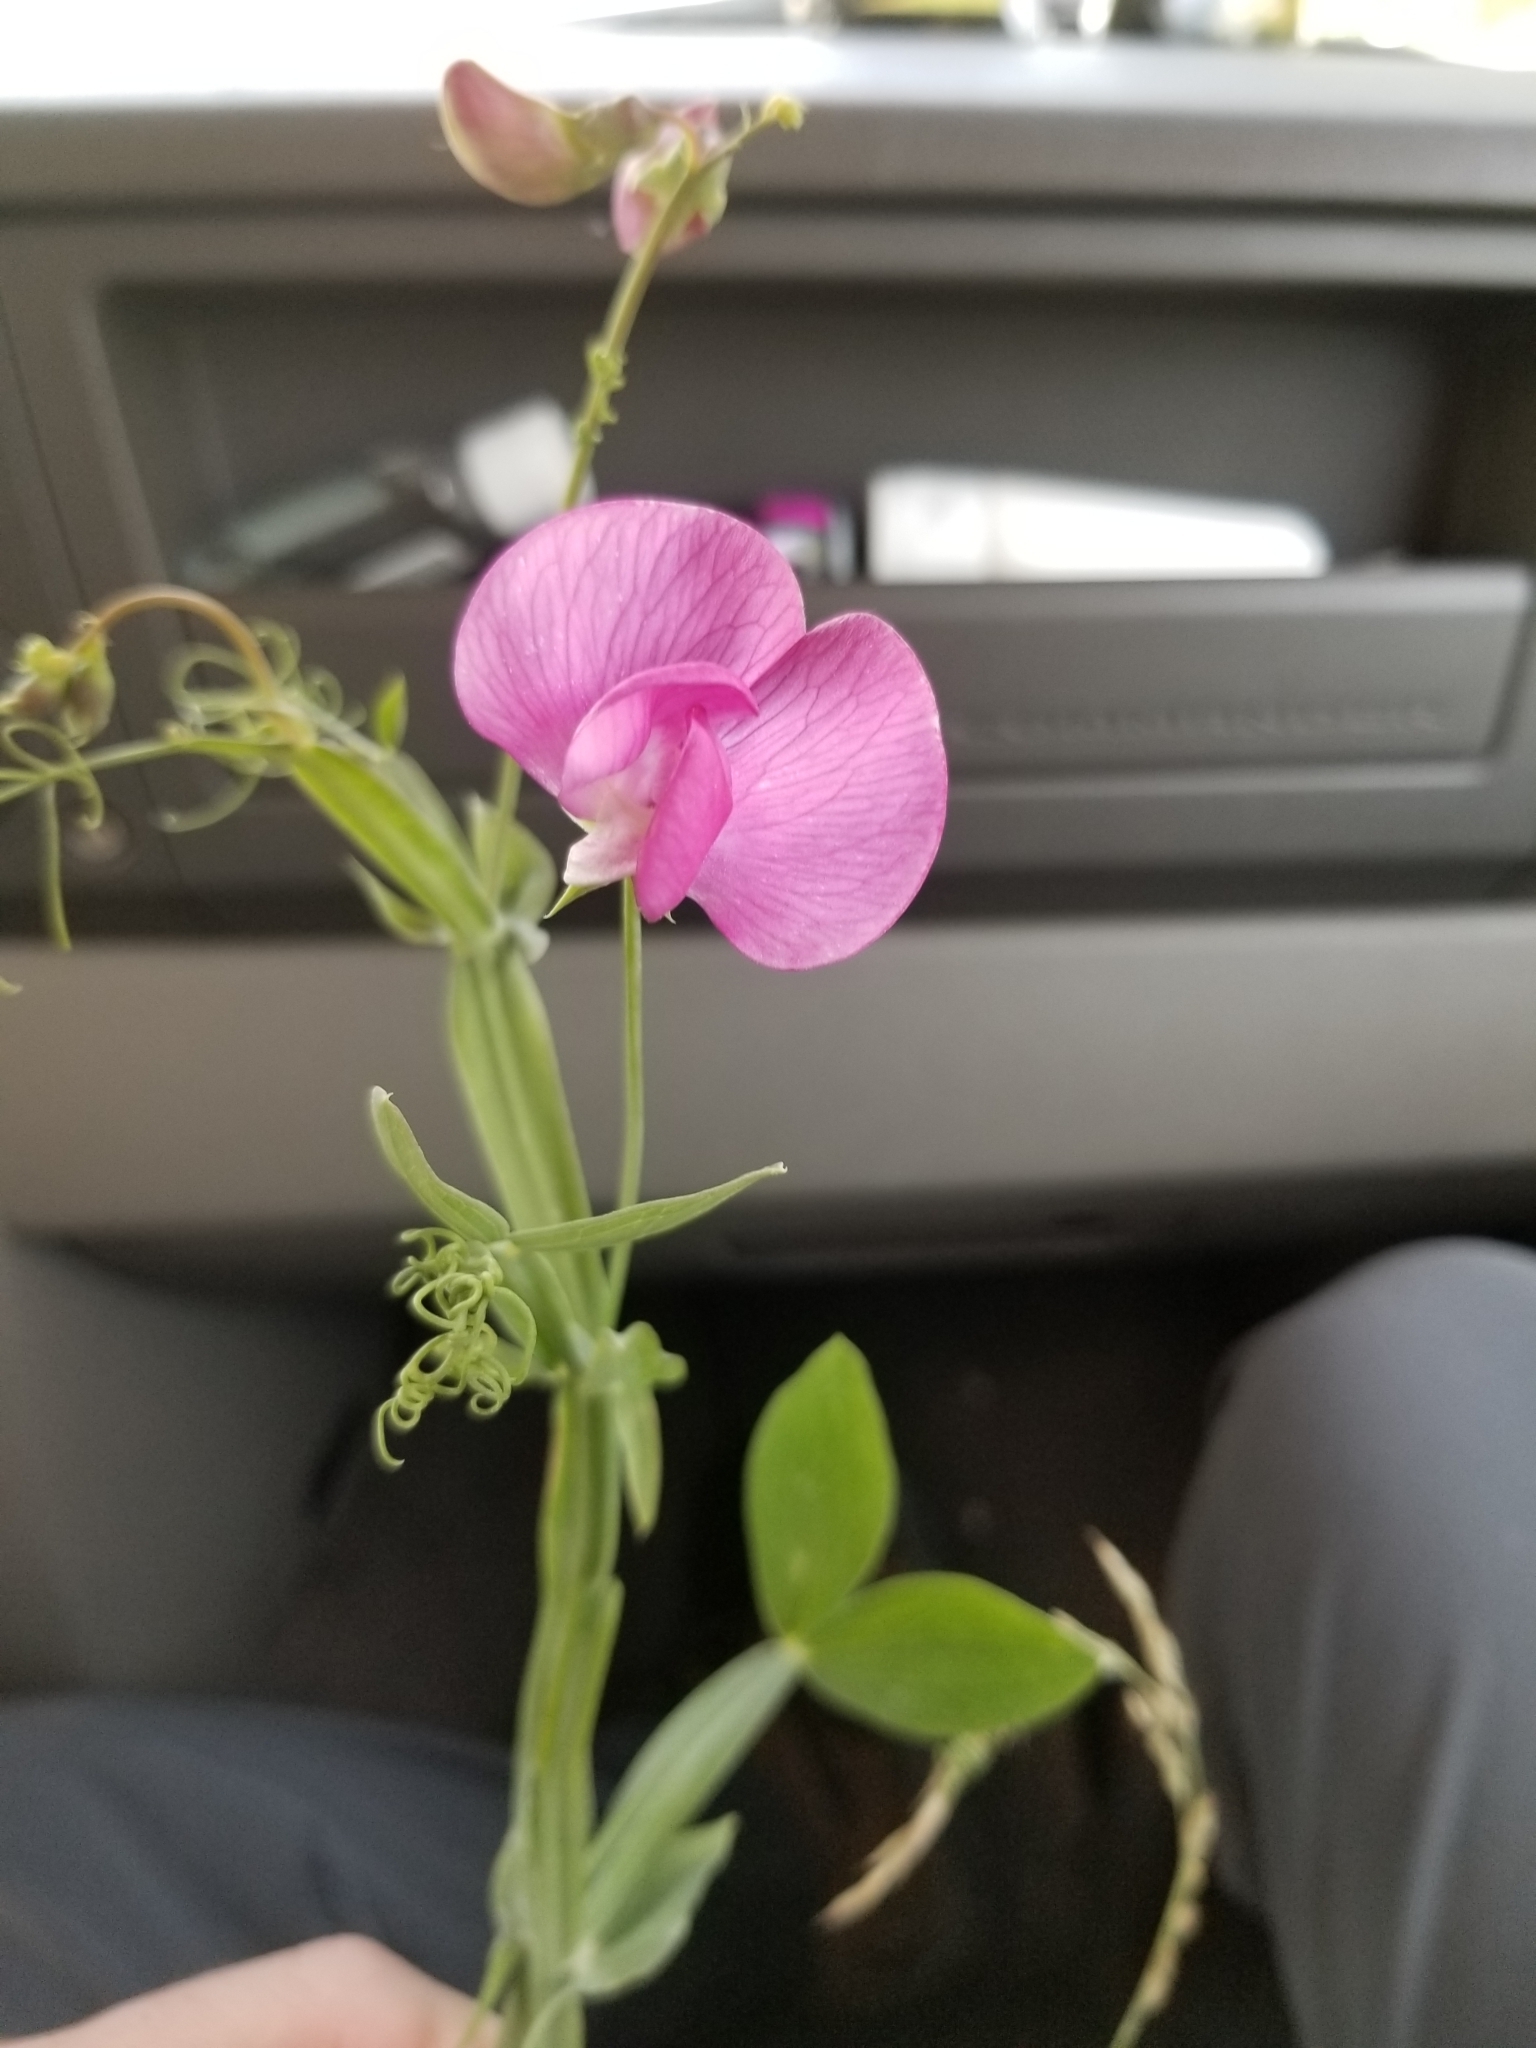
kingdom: Plantae
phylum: Tracheophyta
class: Magnoliopsida
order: Fabales
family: Fabaceae
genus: Lathyrus
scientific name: Lathyrus latifolius
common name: Perennial pea
